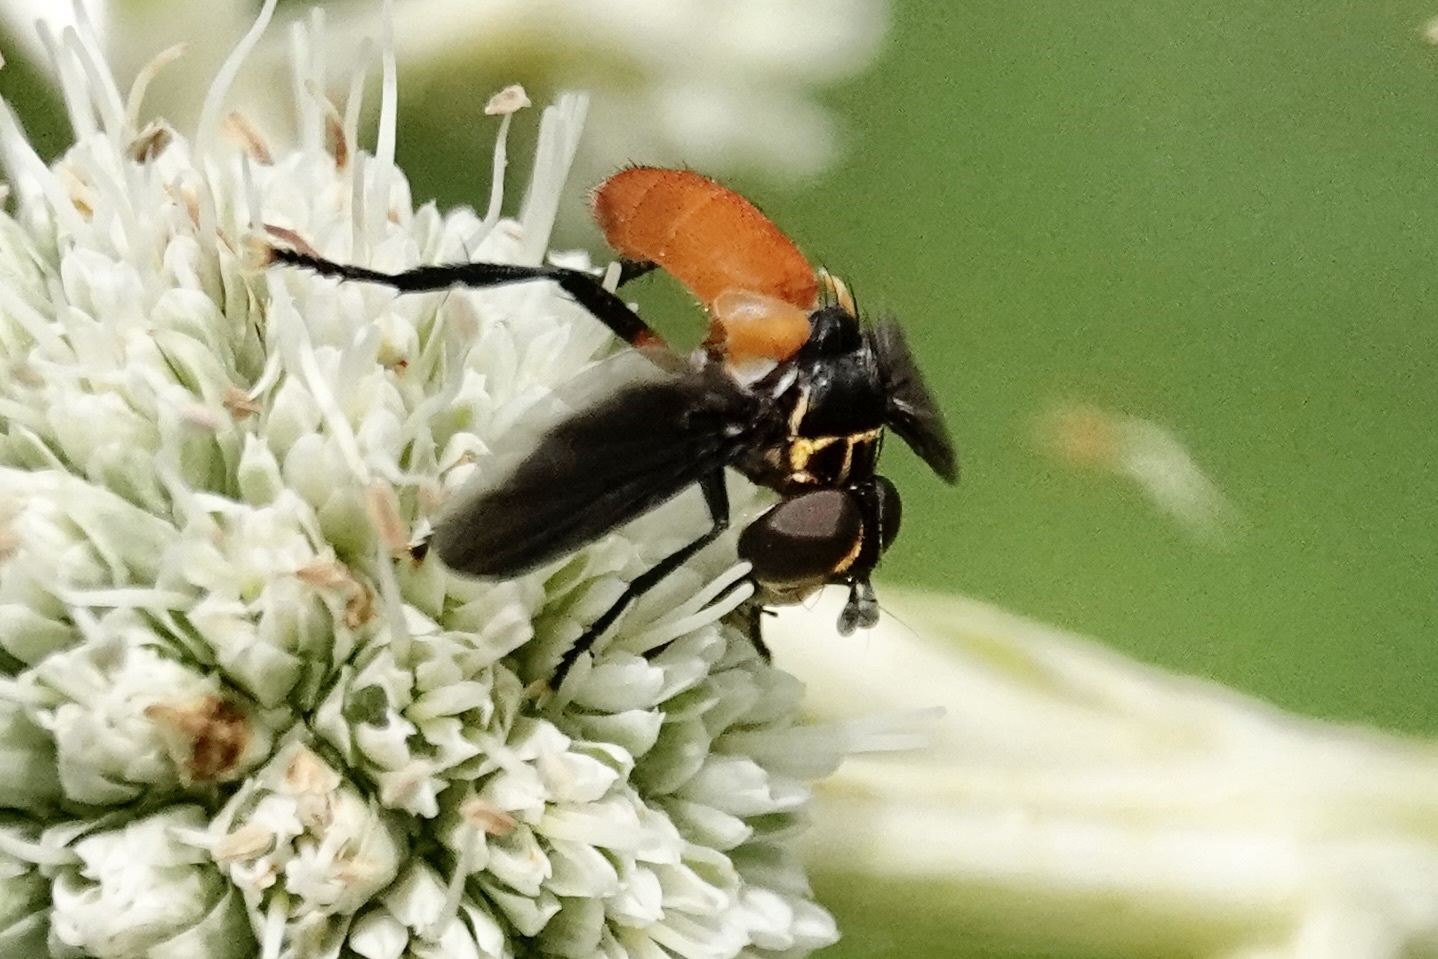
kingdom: Animalia
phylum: Arthropoda
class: Insecta
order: Diptera
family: Tachinidae
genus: Trichopoda
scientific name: Trichopoda pennipes
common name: Tachinid fly
